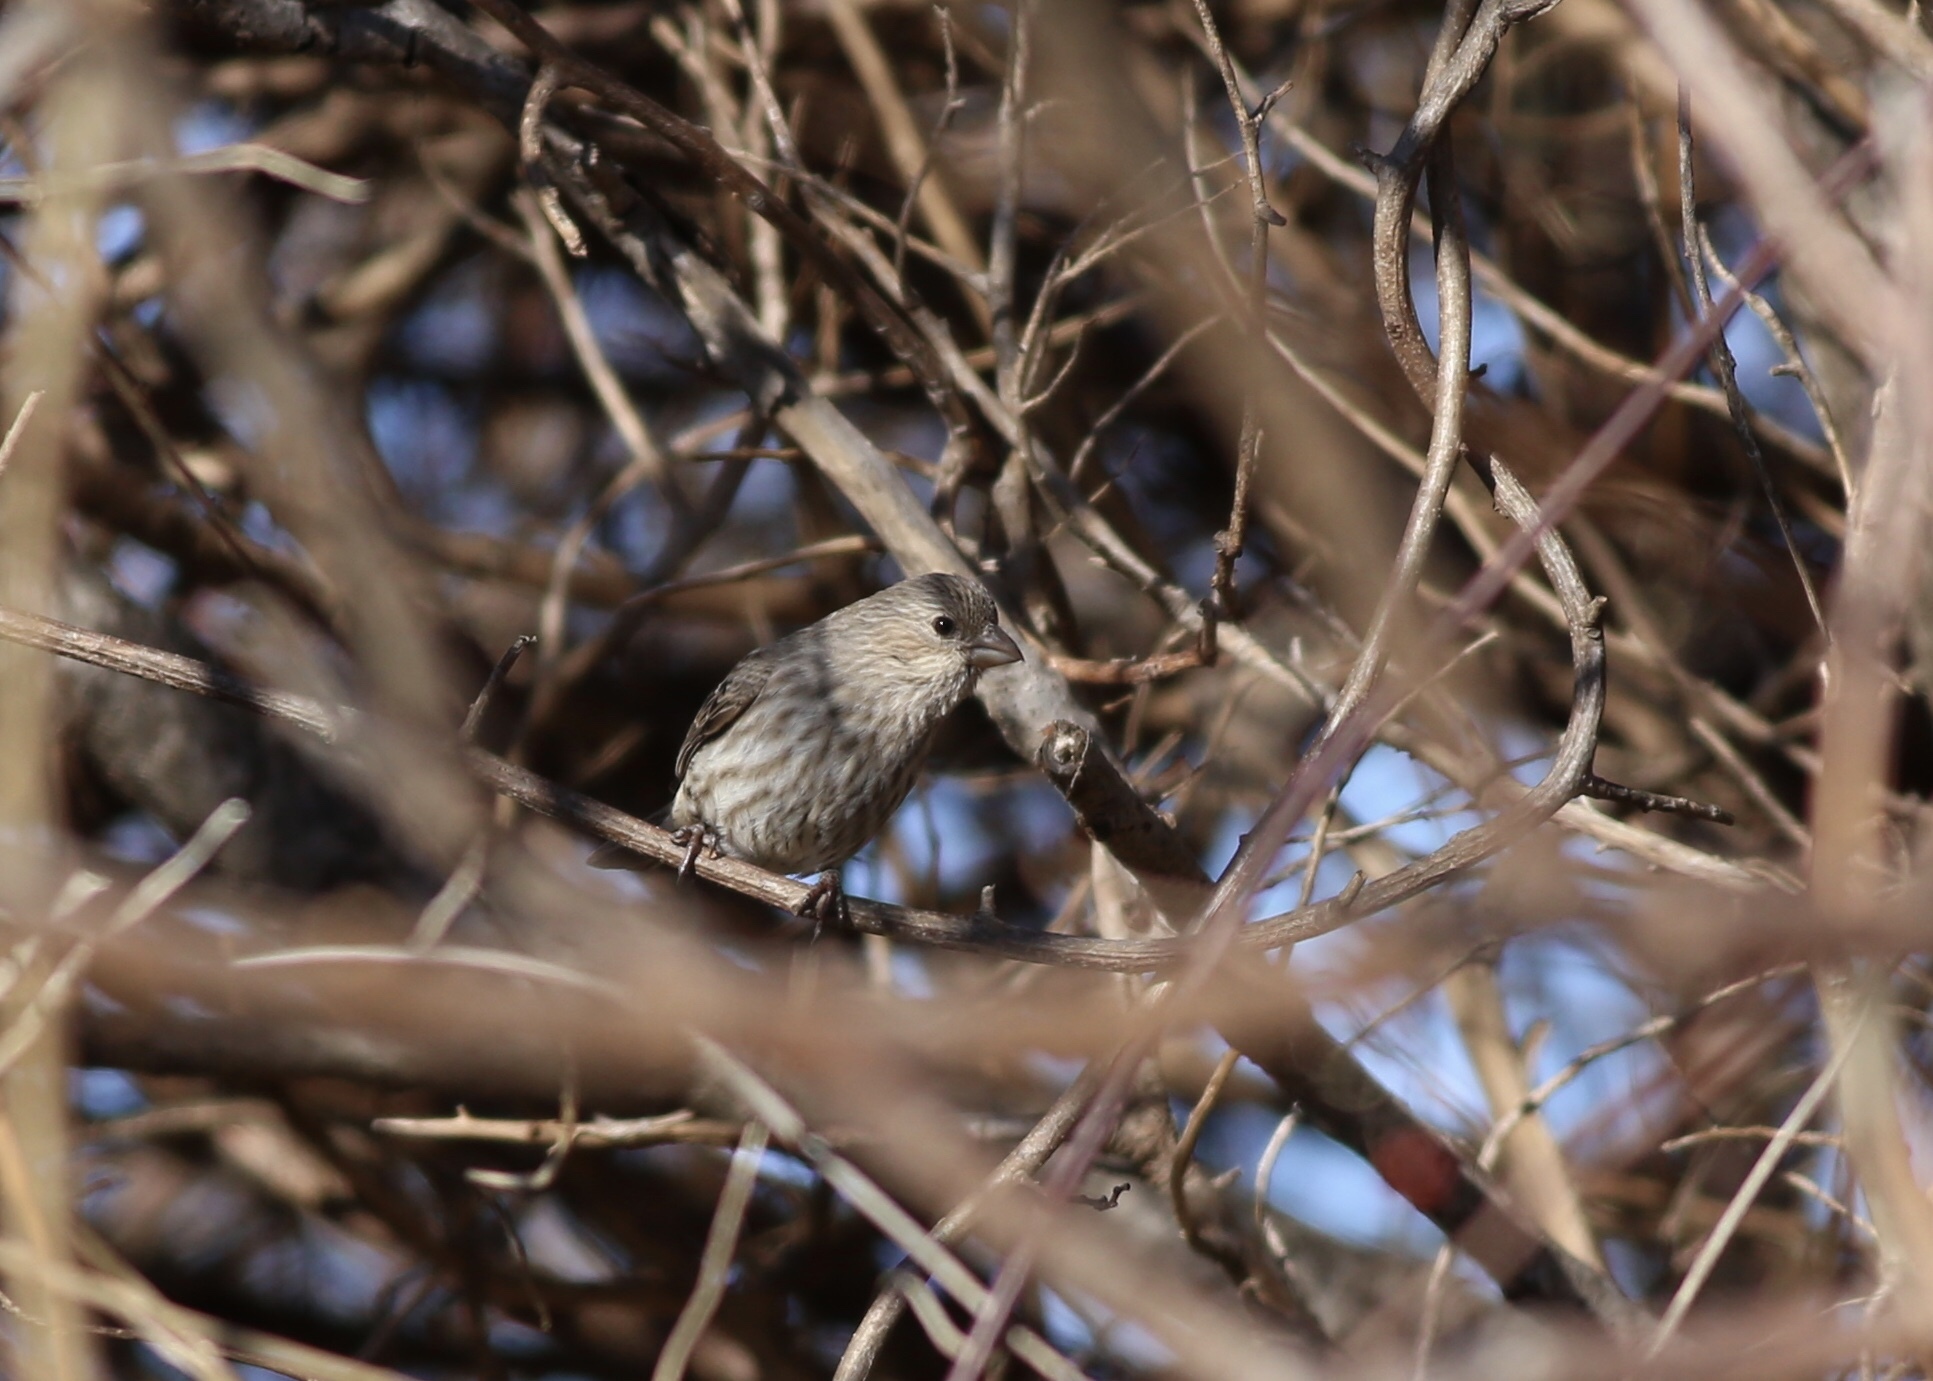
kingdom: Animalia
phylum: Chordata
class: Aves
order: Passeriformes
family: Fringillidae
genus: Haemorhous
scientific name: Haemorhous mexicanus
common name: House finch
